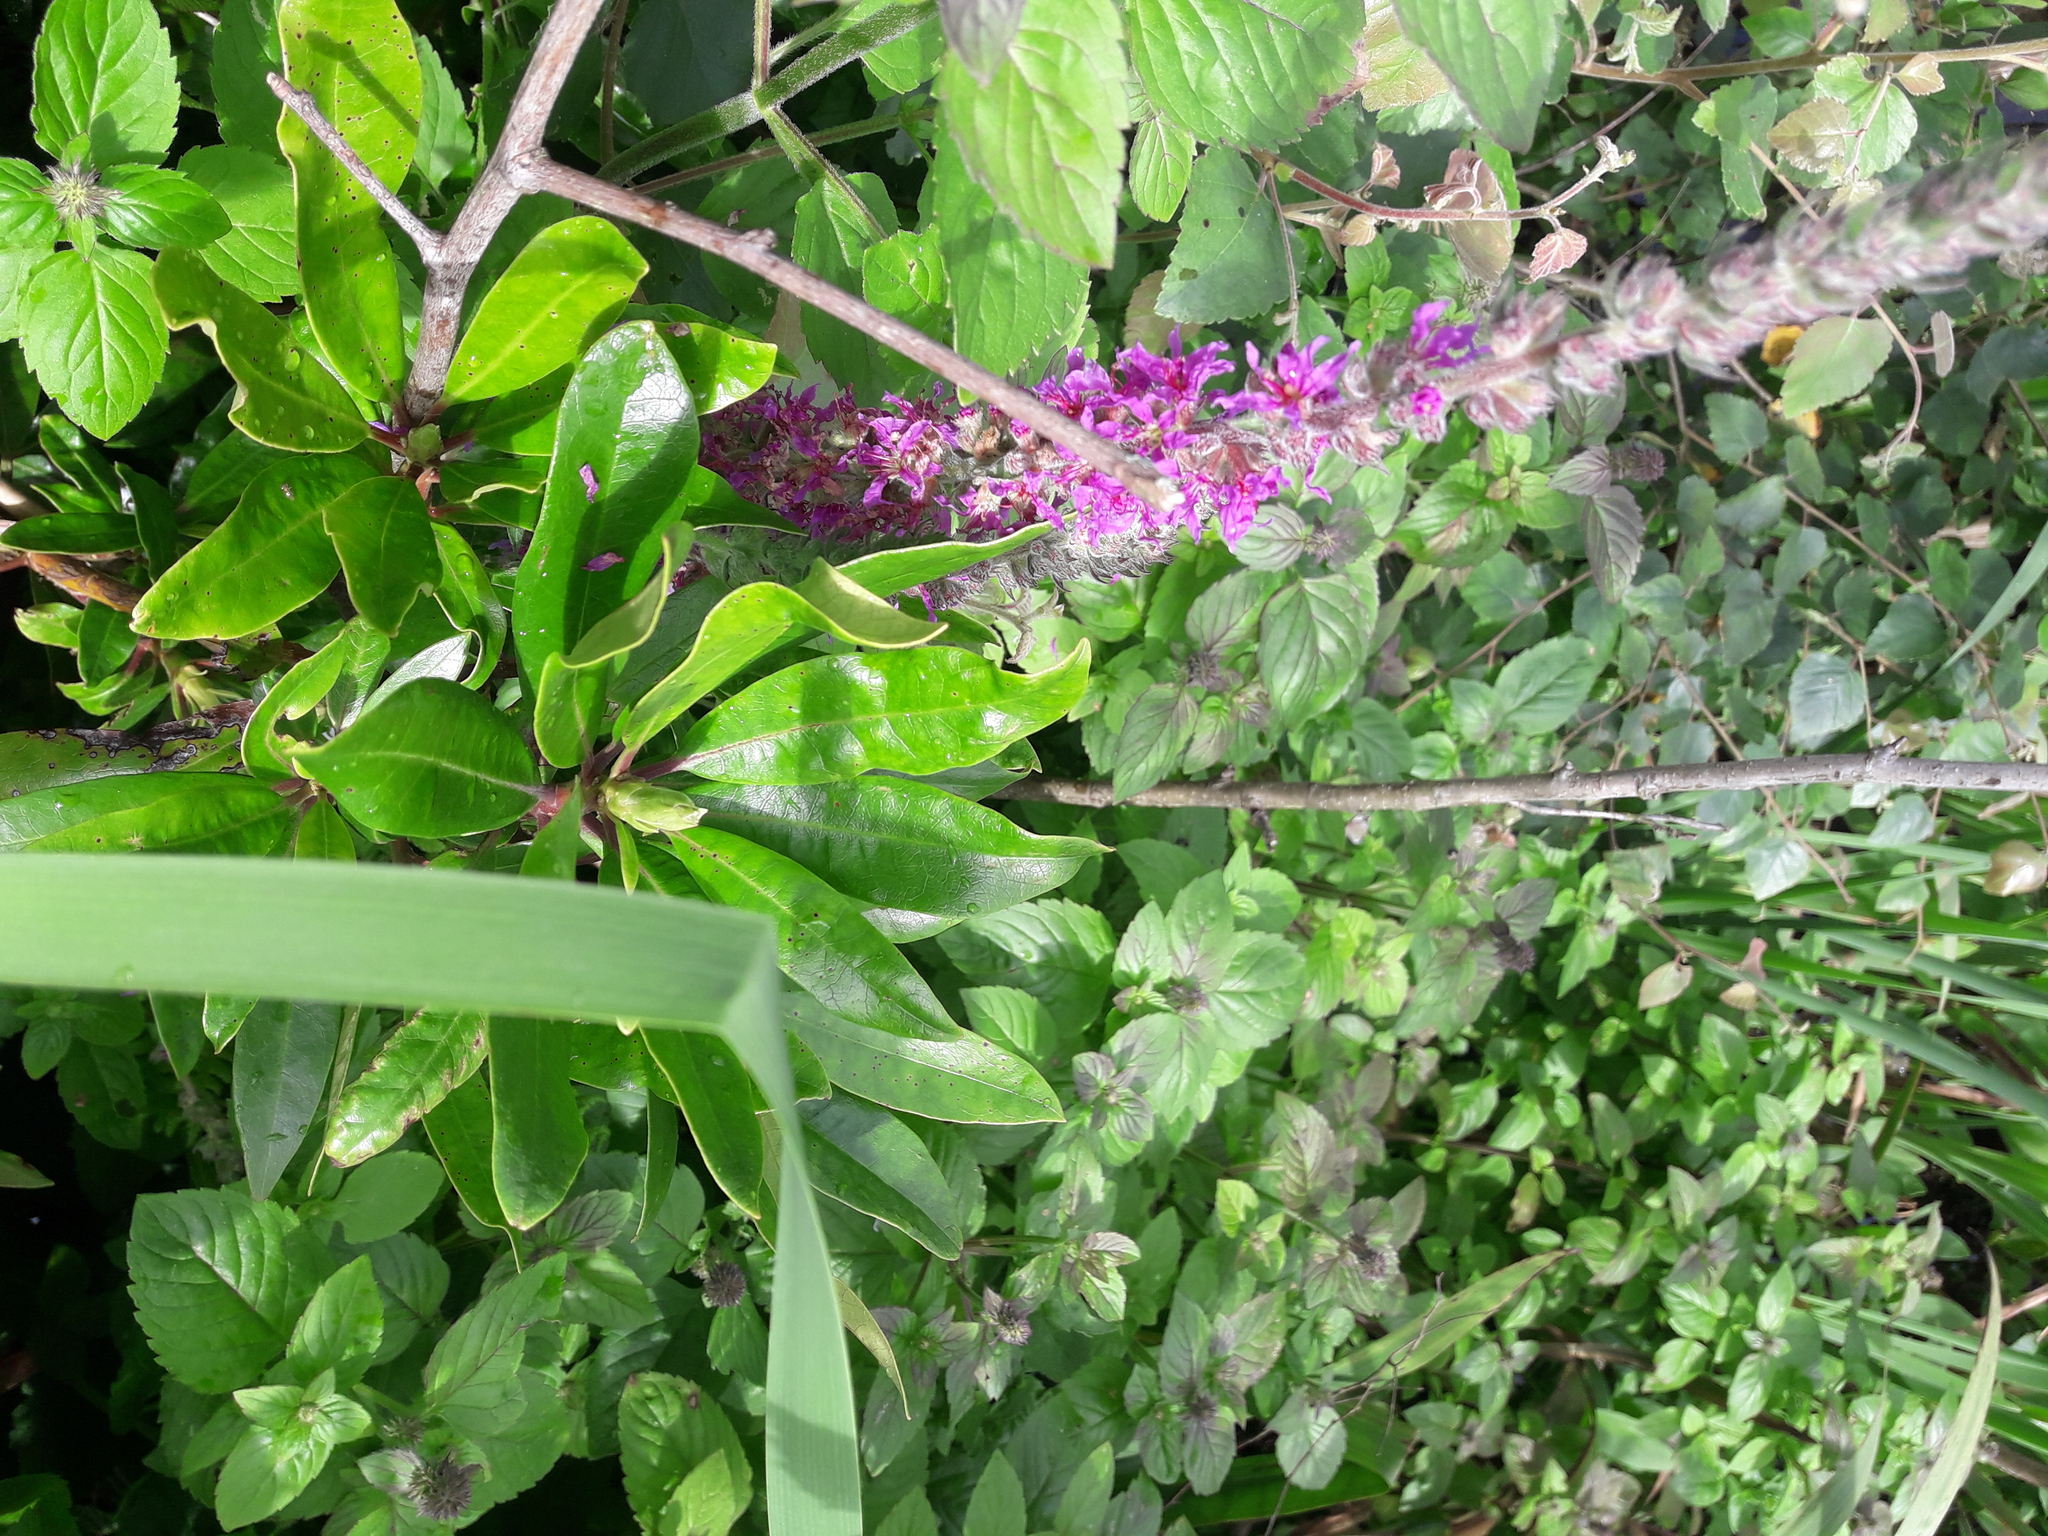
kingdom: Plantae
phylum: Tracheophyta
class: Magnoliopsida
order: Myrtales
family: Lythraceae
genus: Lythrum
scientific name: Lythrum salicaria
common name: Purple loosestrife
